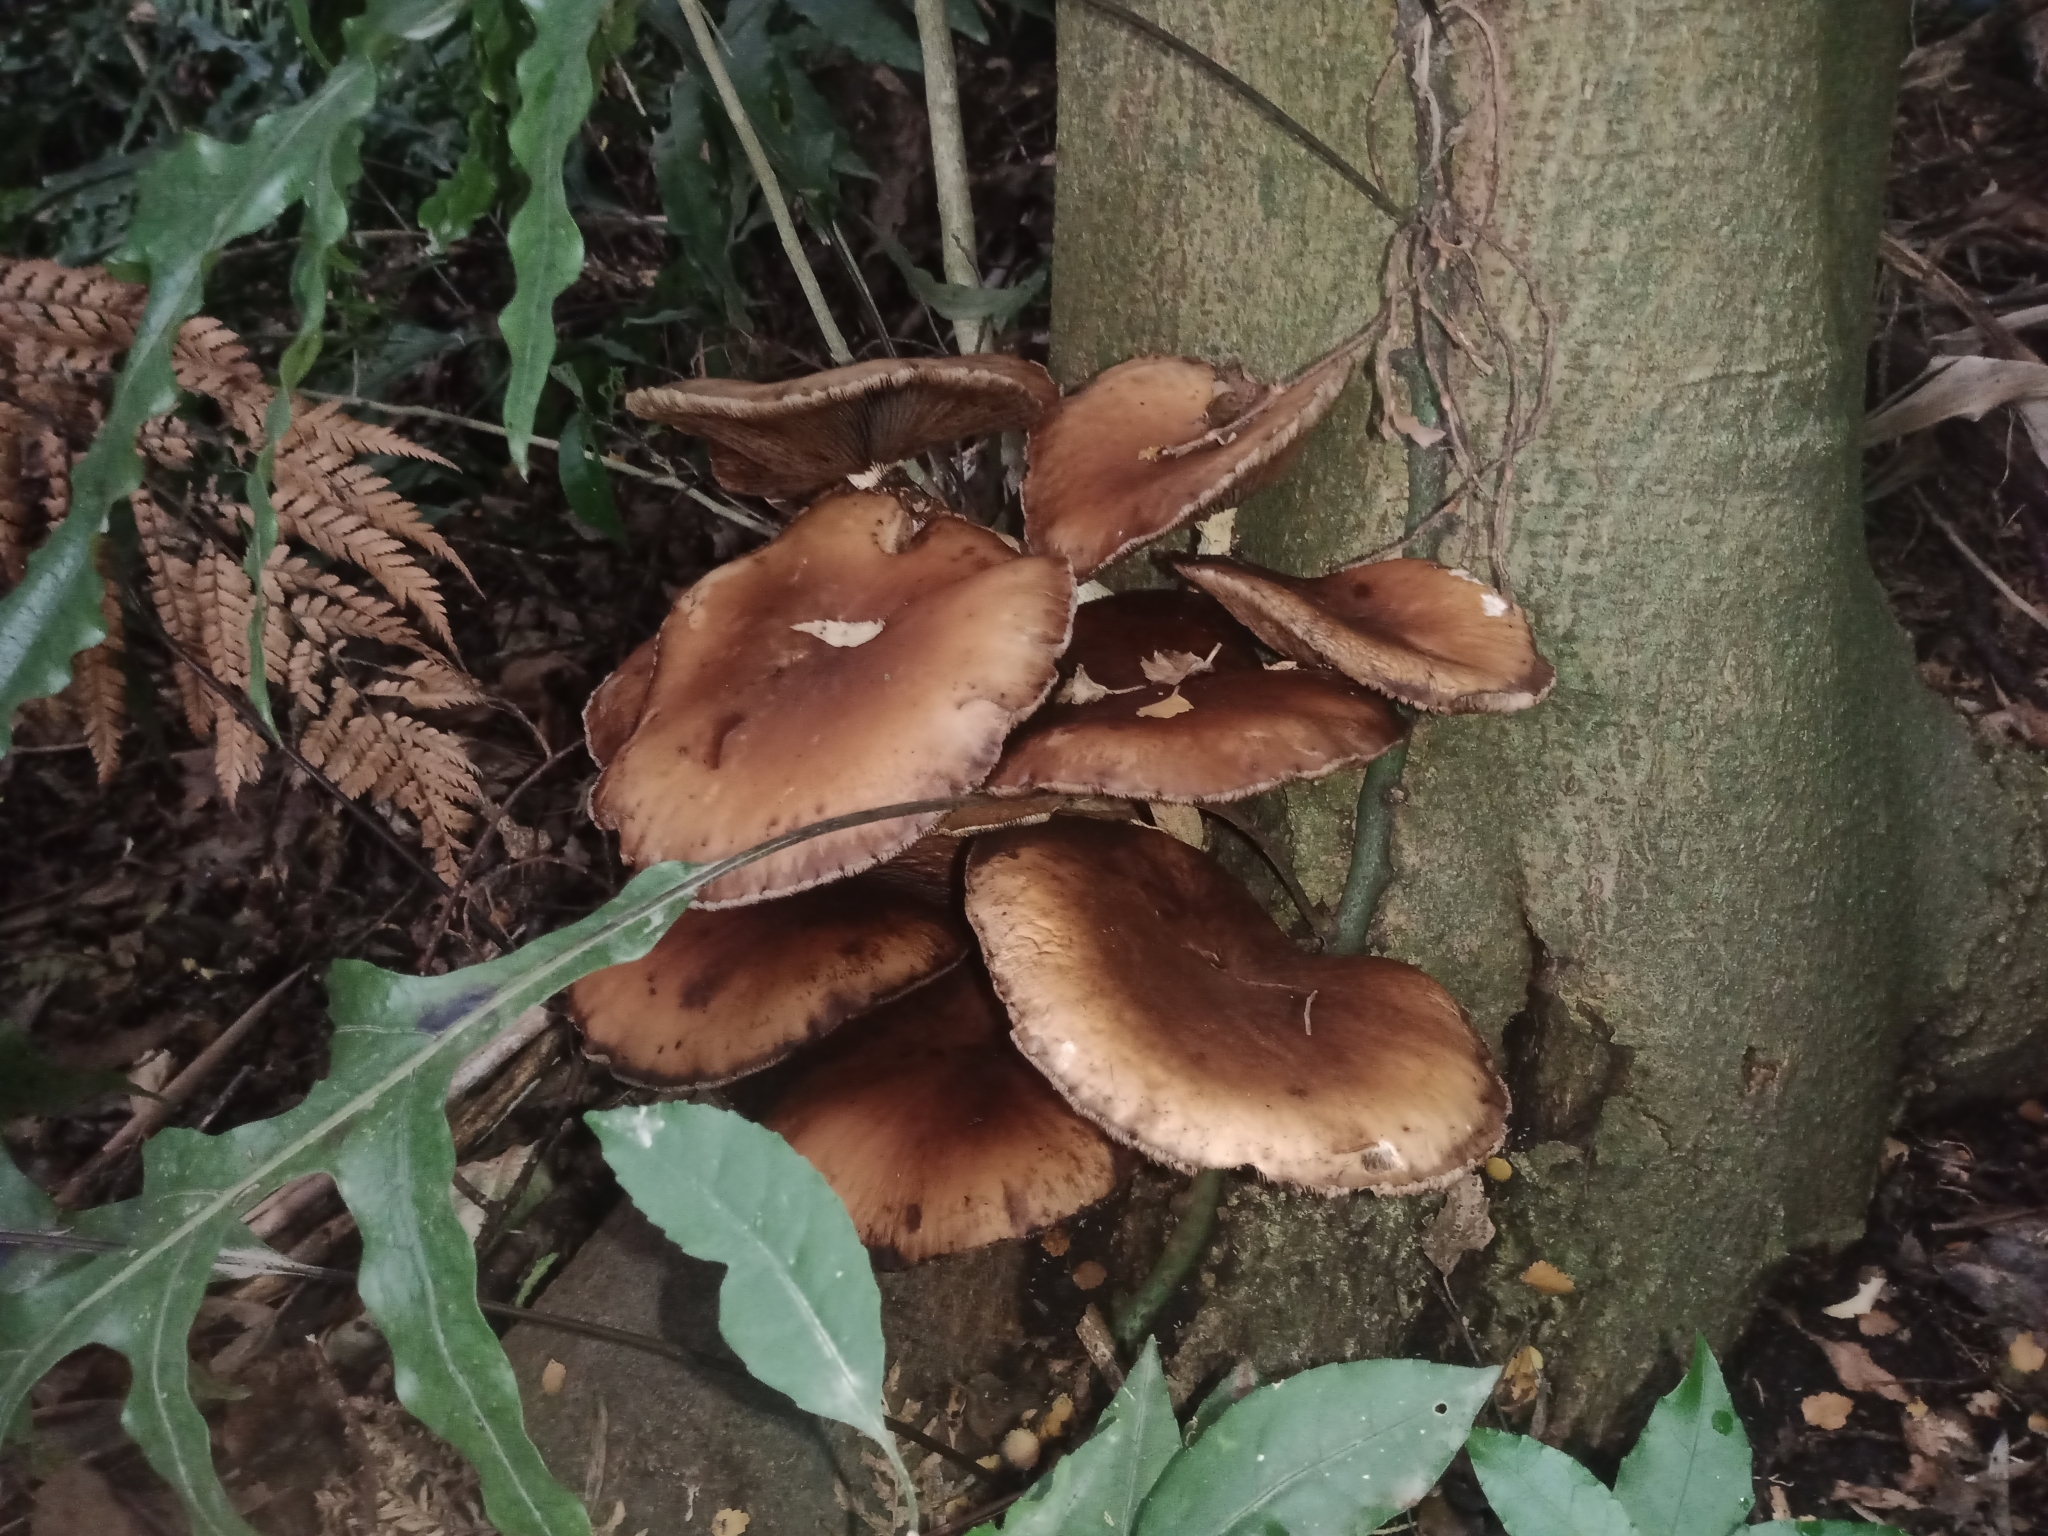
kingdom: Fungi
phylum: Basidiomycota
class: Agaricomycetes
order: Agaricales
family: Tubariaceae
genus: Cyclocybe
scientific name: Cyclocybe parasitica
